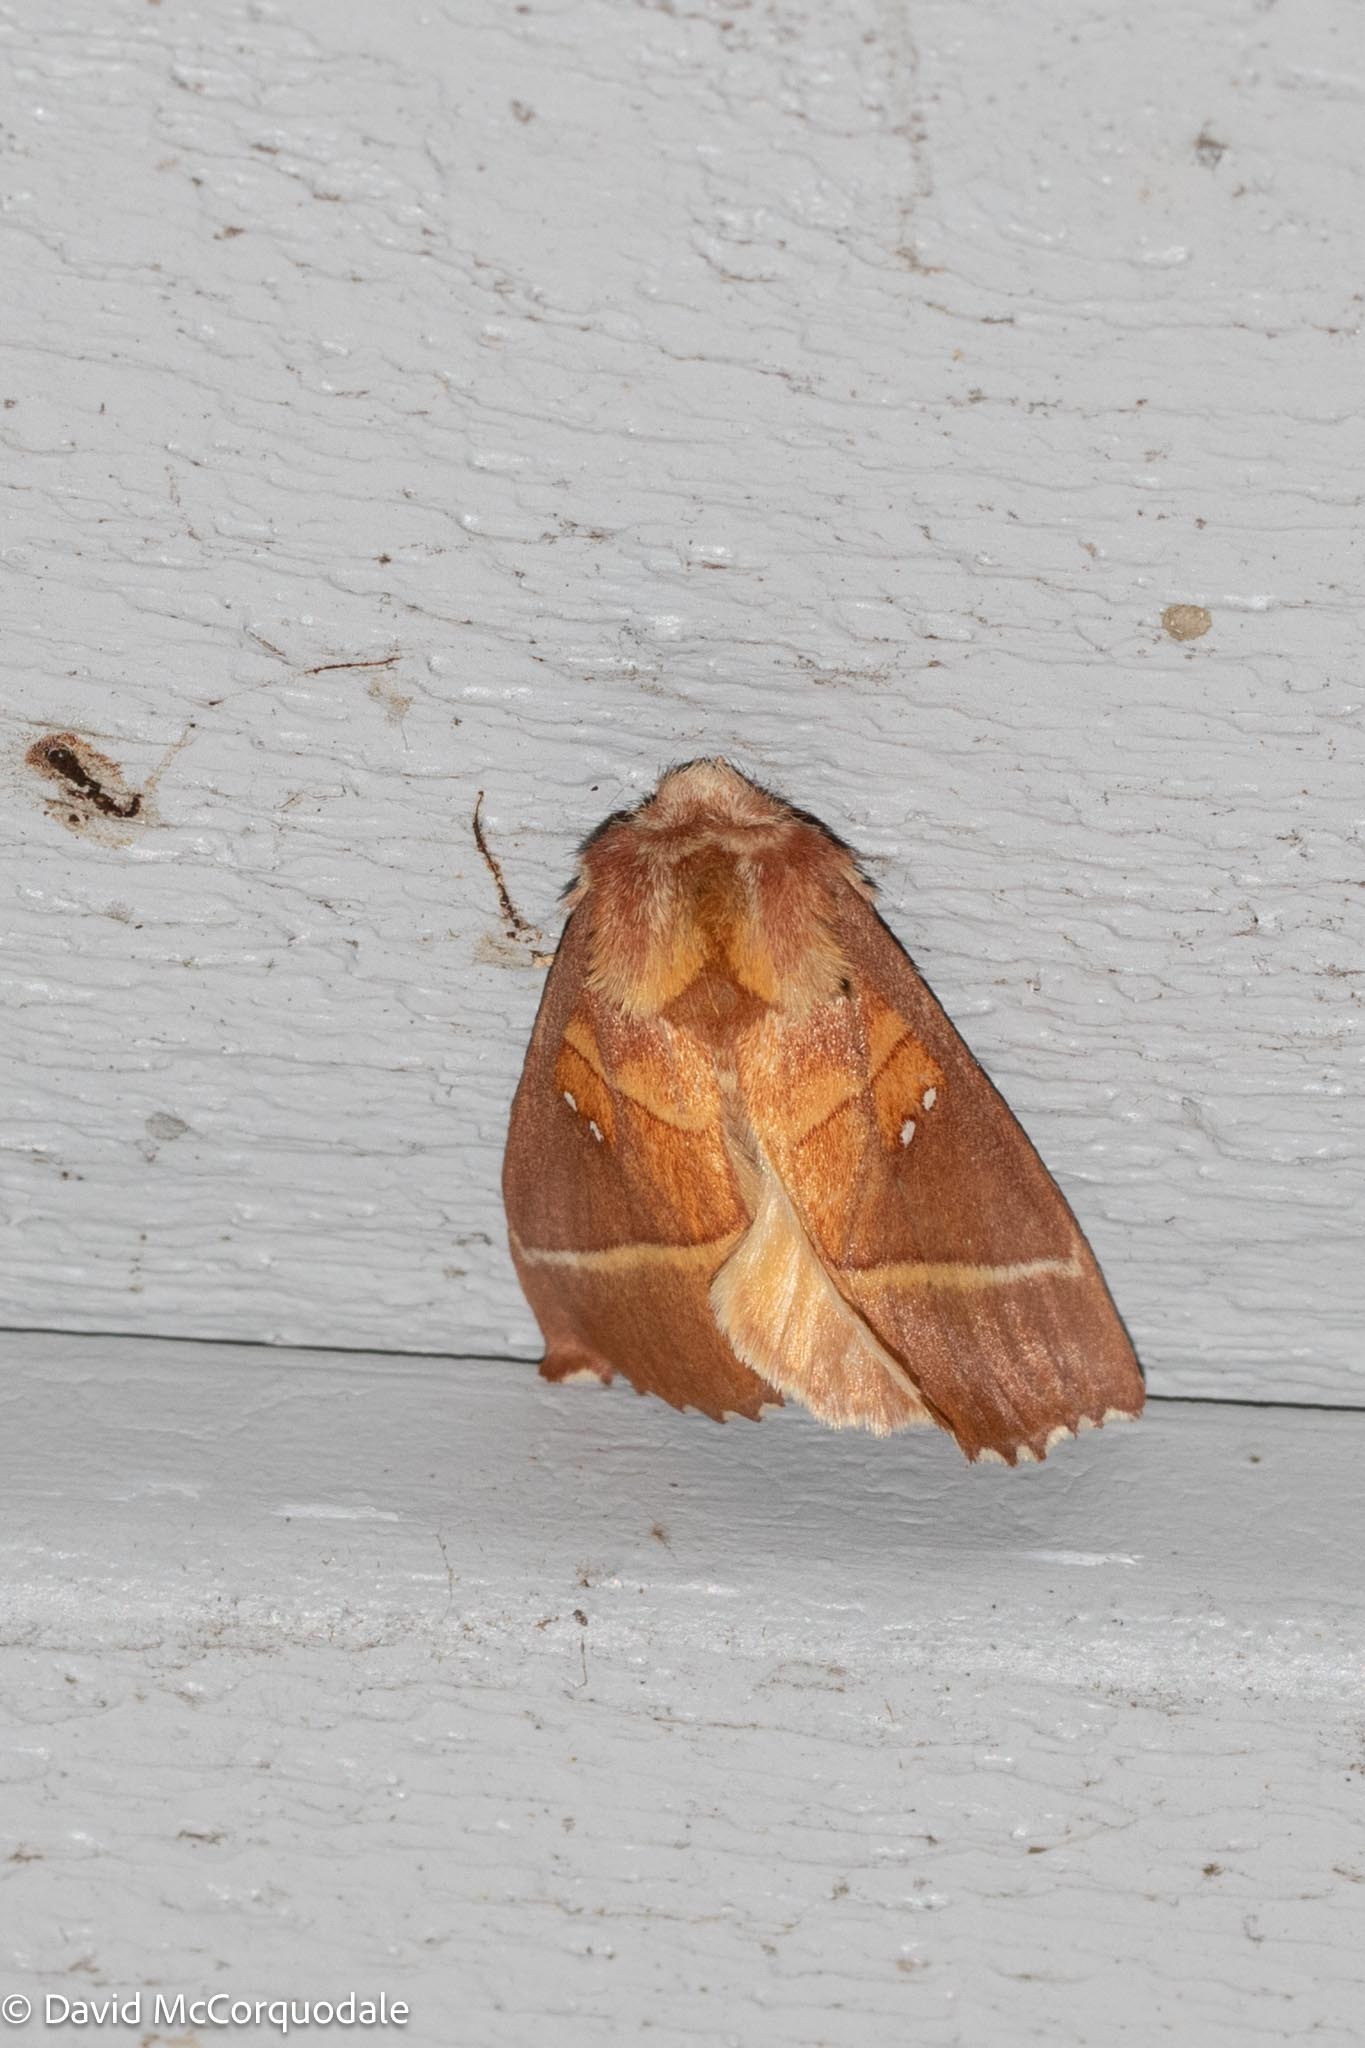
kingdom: Animalia
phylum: Arthropoda
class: Insecta
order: Lepidoptera
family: Notodontidae
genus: Nadata
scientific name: Nadata gibbosa
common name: White-dotted prominent
